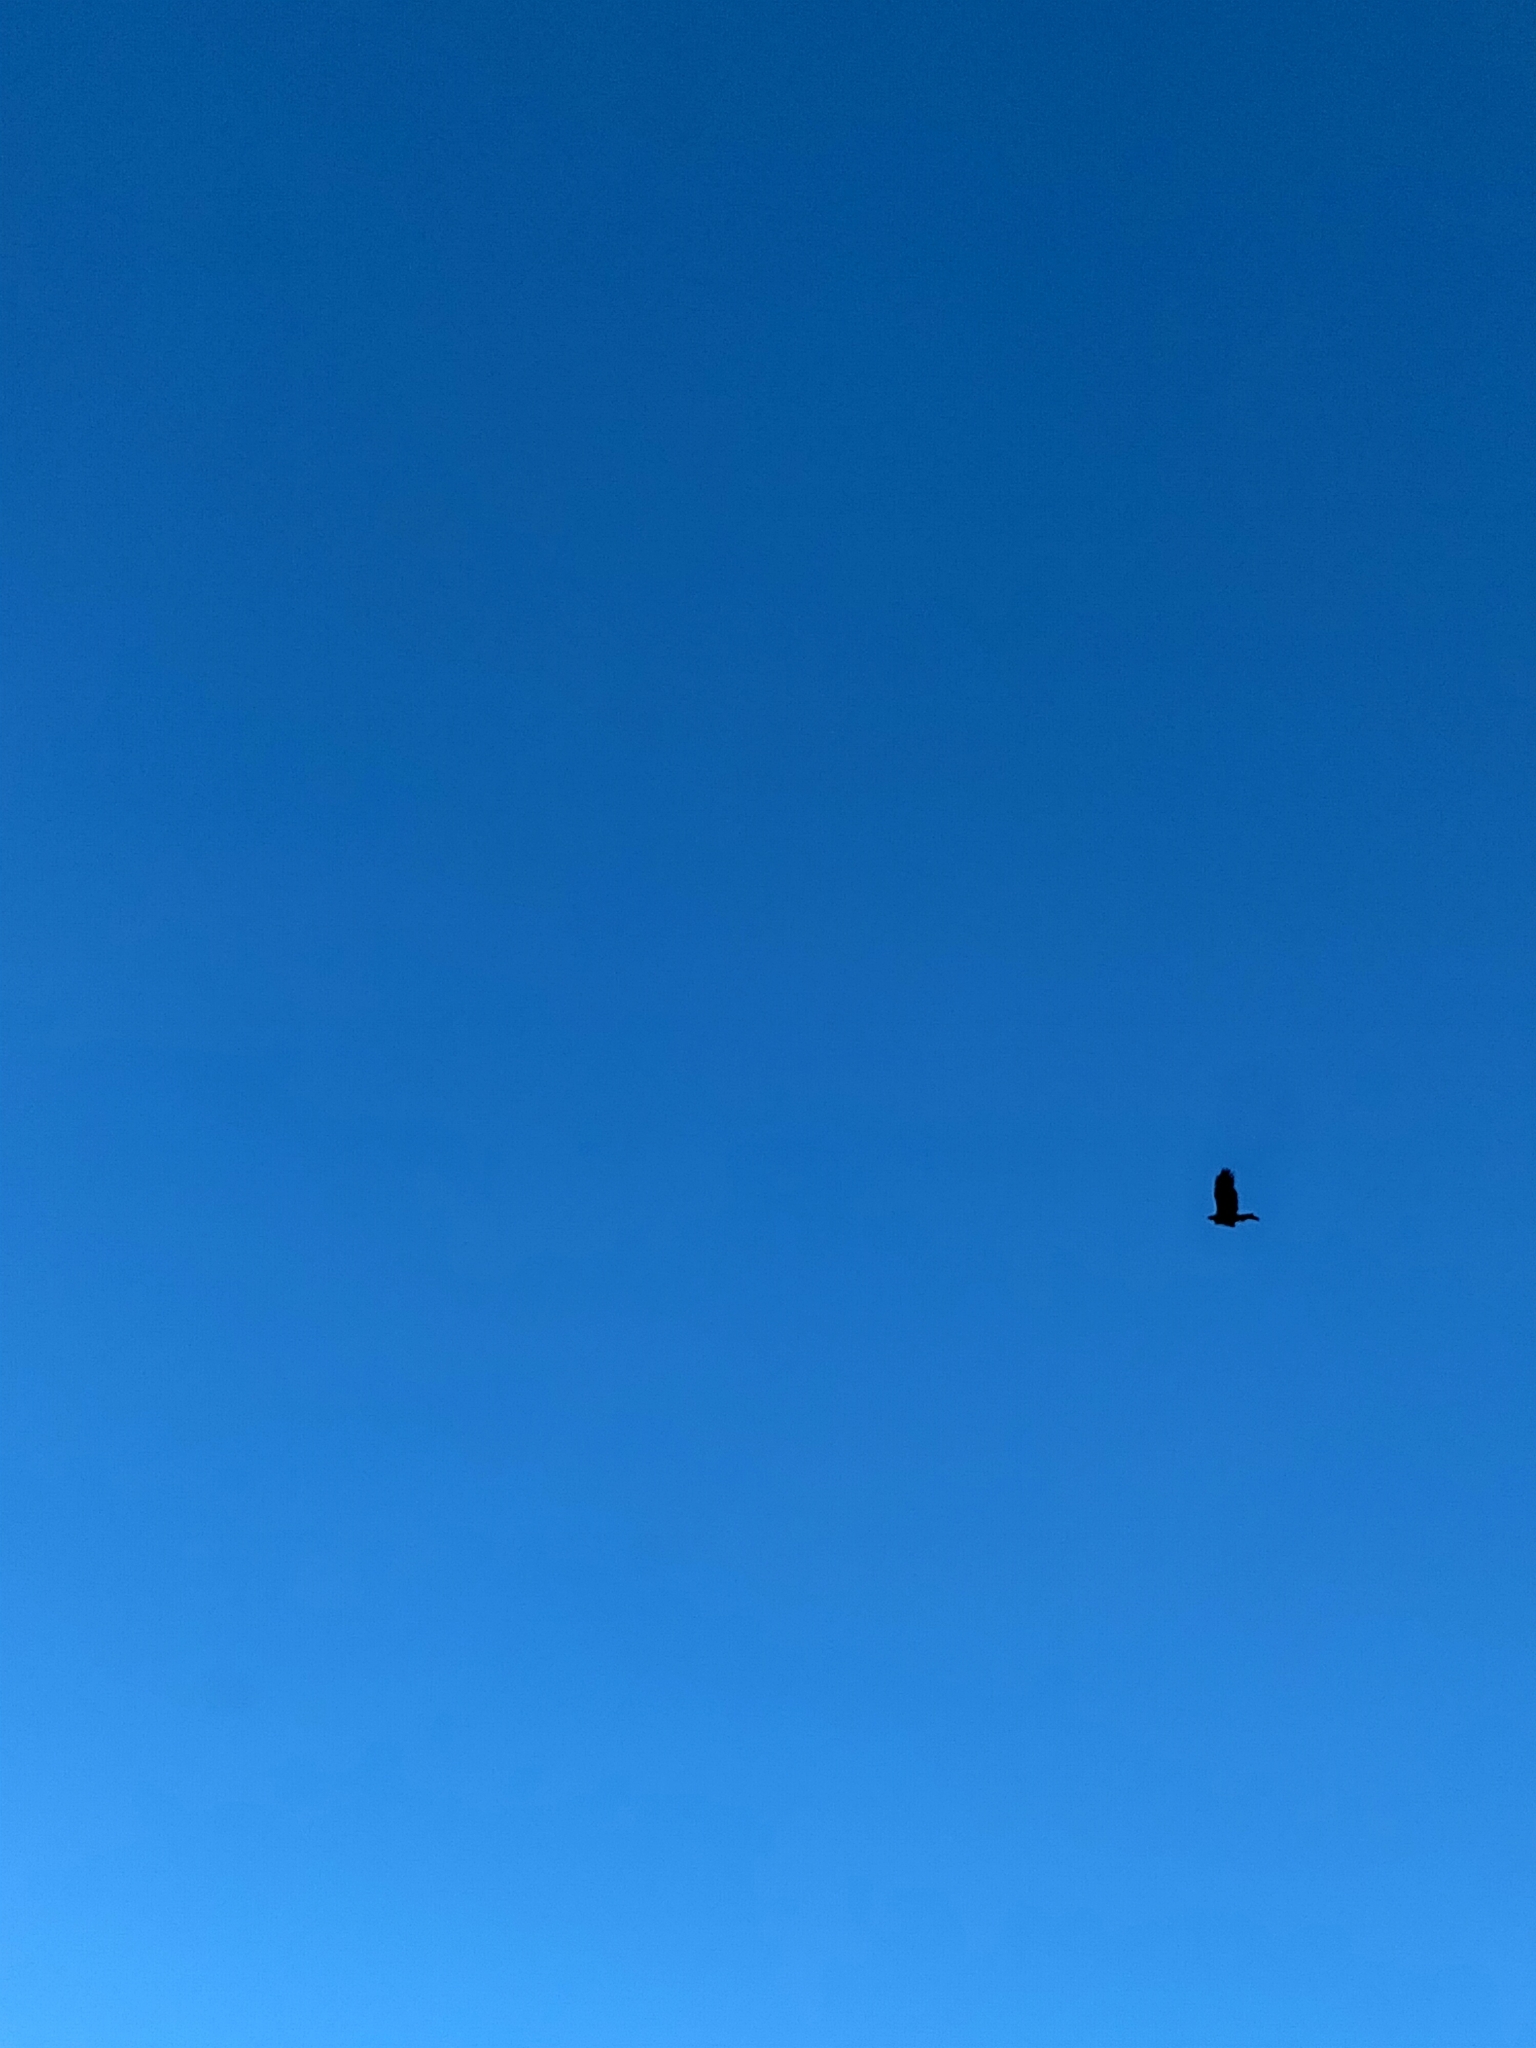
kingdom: Animalia
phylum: Chordata
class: Aves
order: Accipitriformes
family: Accipitridae
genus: Aquila
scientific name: Aquila audax
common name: Wedge-tailed eagle
